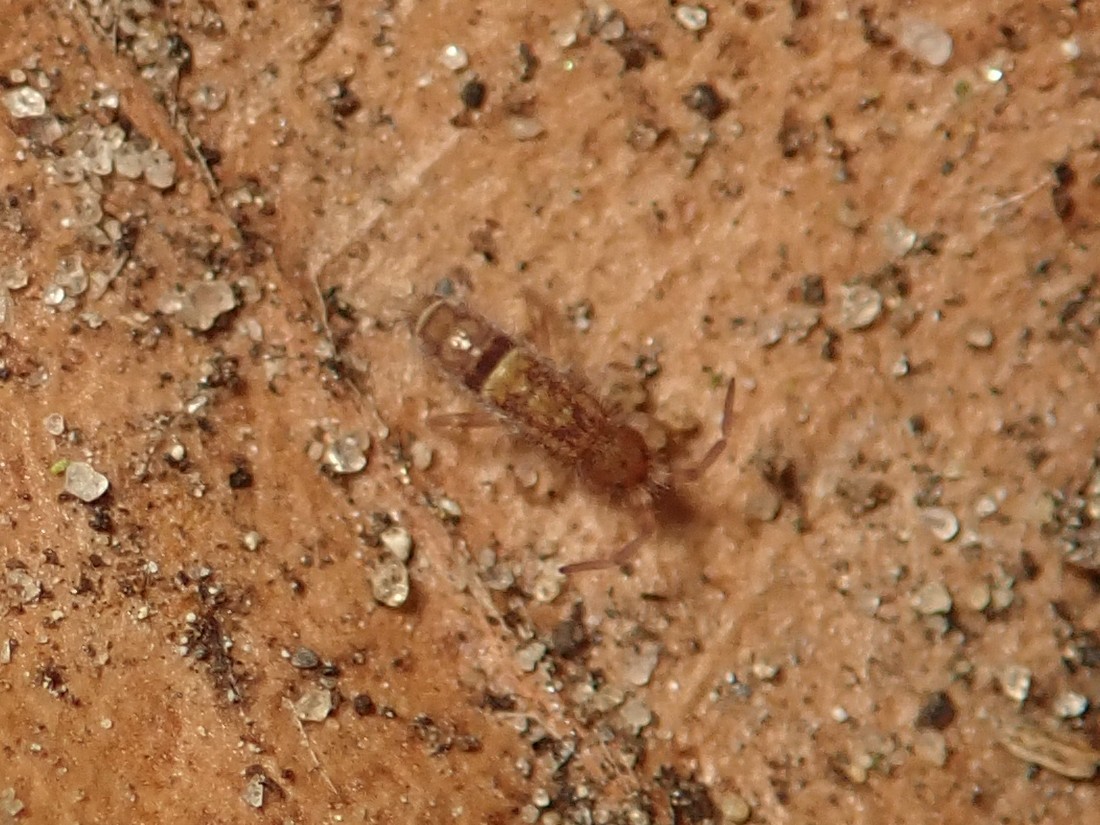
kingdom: Animalia
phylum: Arthropoda
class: Collembola
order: Entomobryomorpha
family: Orchesellidae
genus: Orchesella
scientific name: Orchesella cincta
